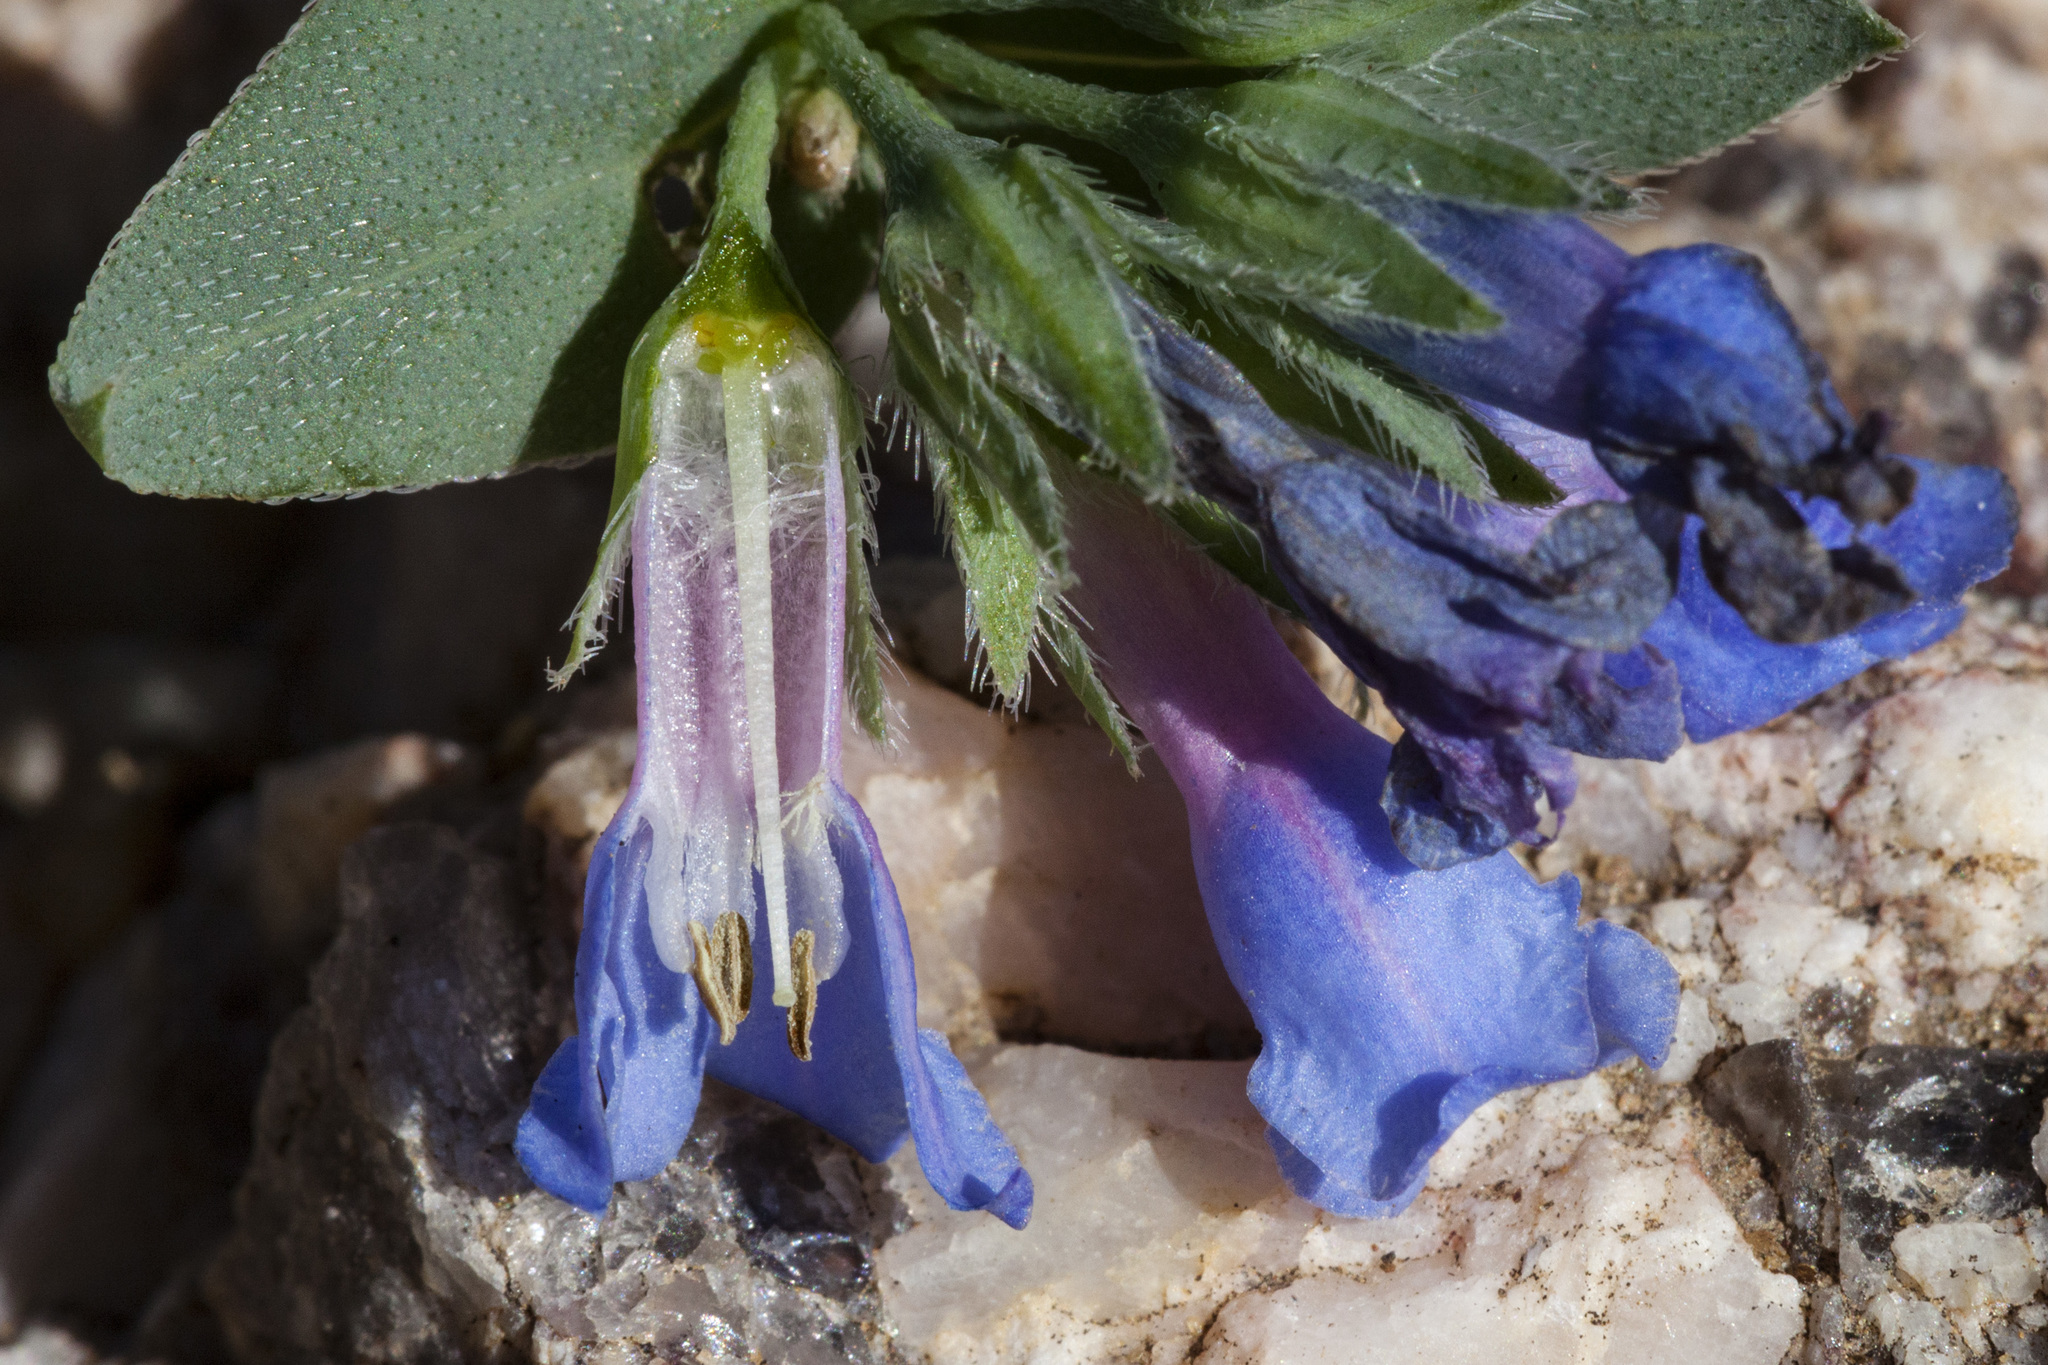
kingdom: Plantae
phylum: Tracheophyta
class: Magnoliopsida
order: Boraginales
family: Boraginaceae
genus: Mertensia
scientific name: Mertensia ovata
